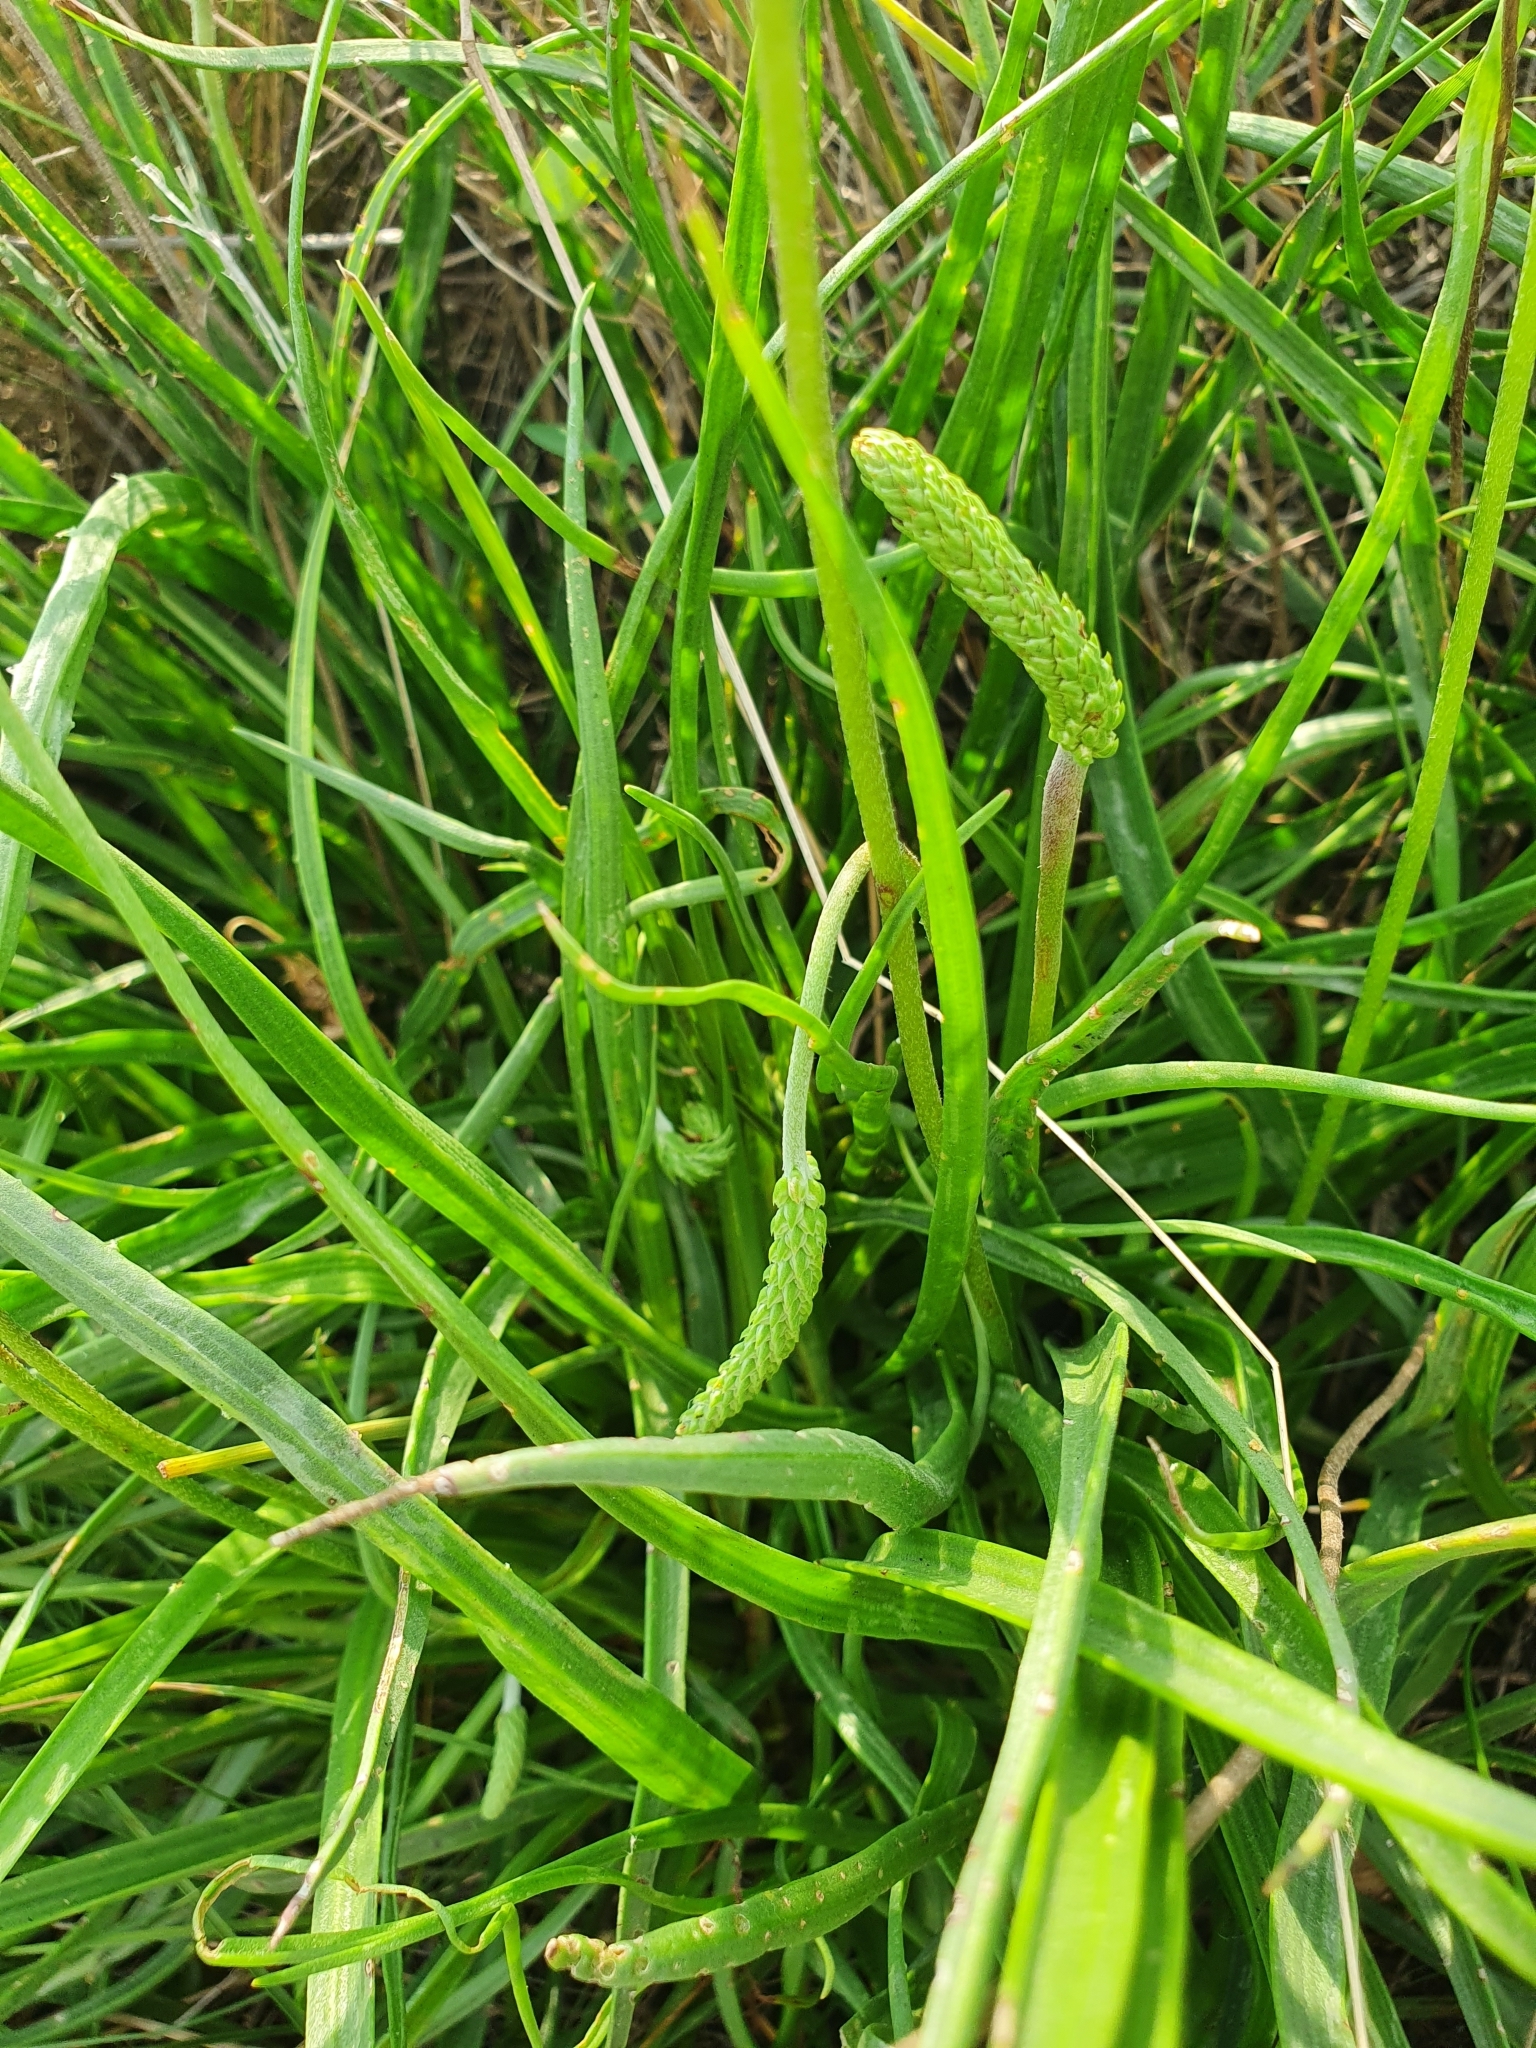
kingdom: Plantae
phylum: Tracheophyta
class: Magnoliopsida
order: Lamiales
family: Plantaginaceae
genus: Plantago
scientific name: Plantago salsa
